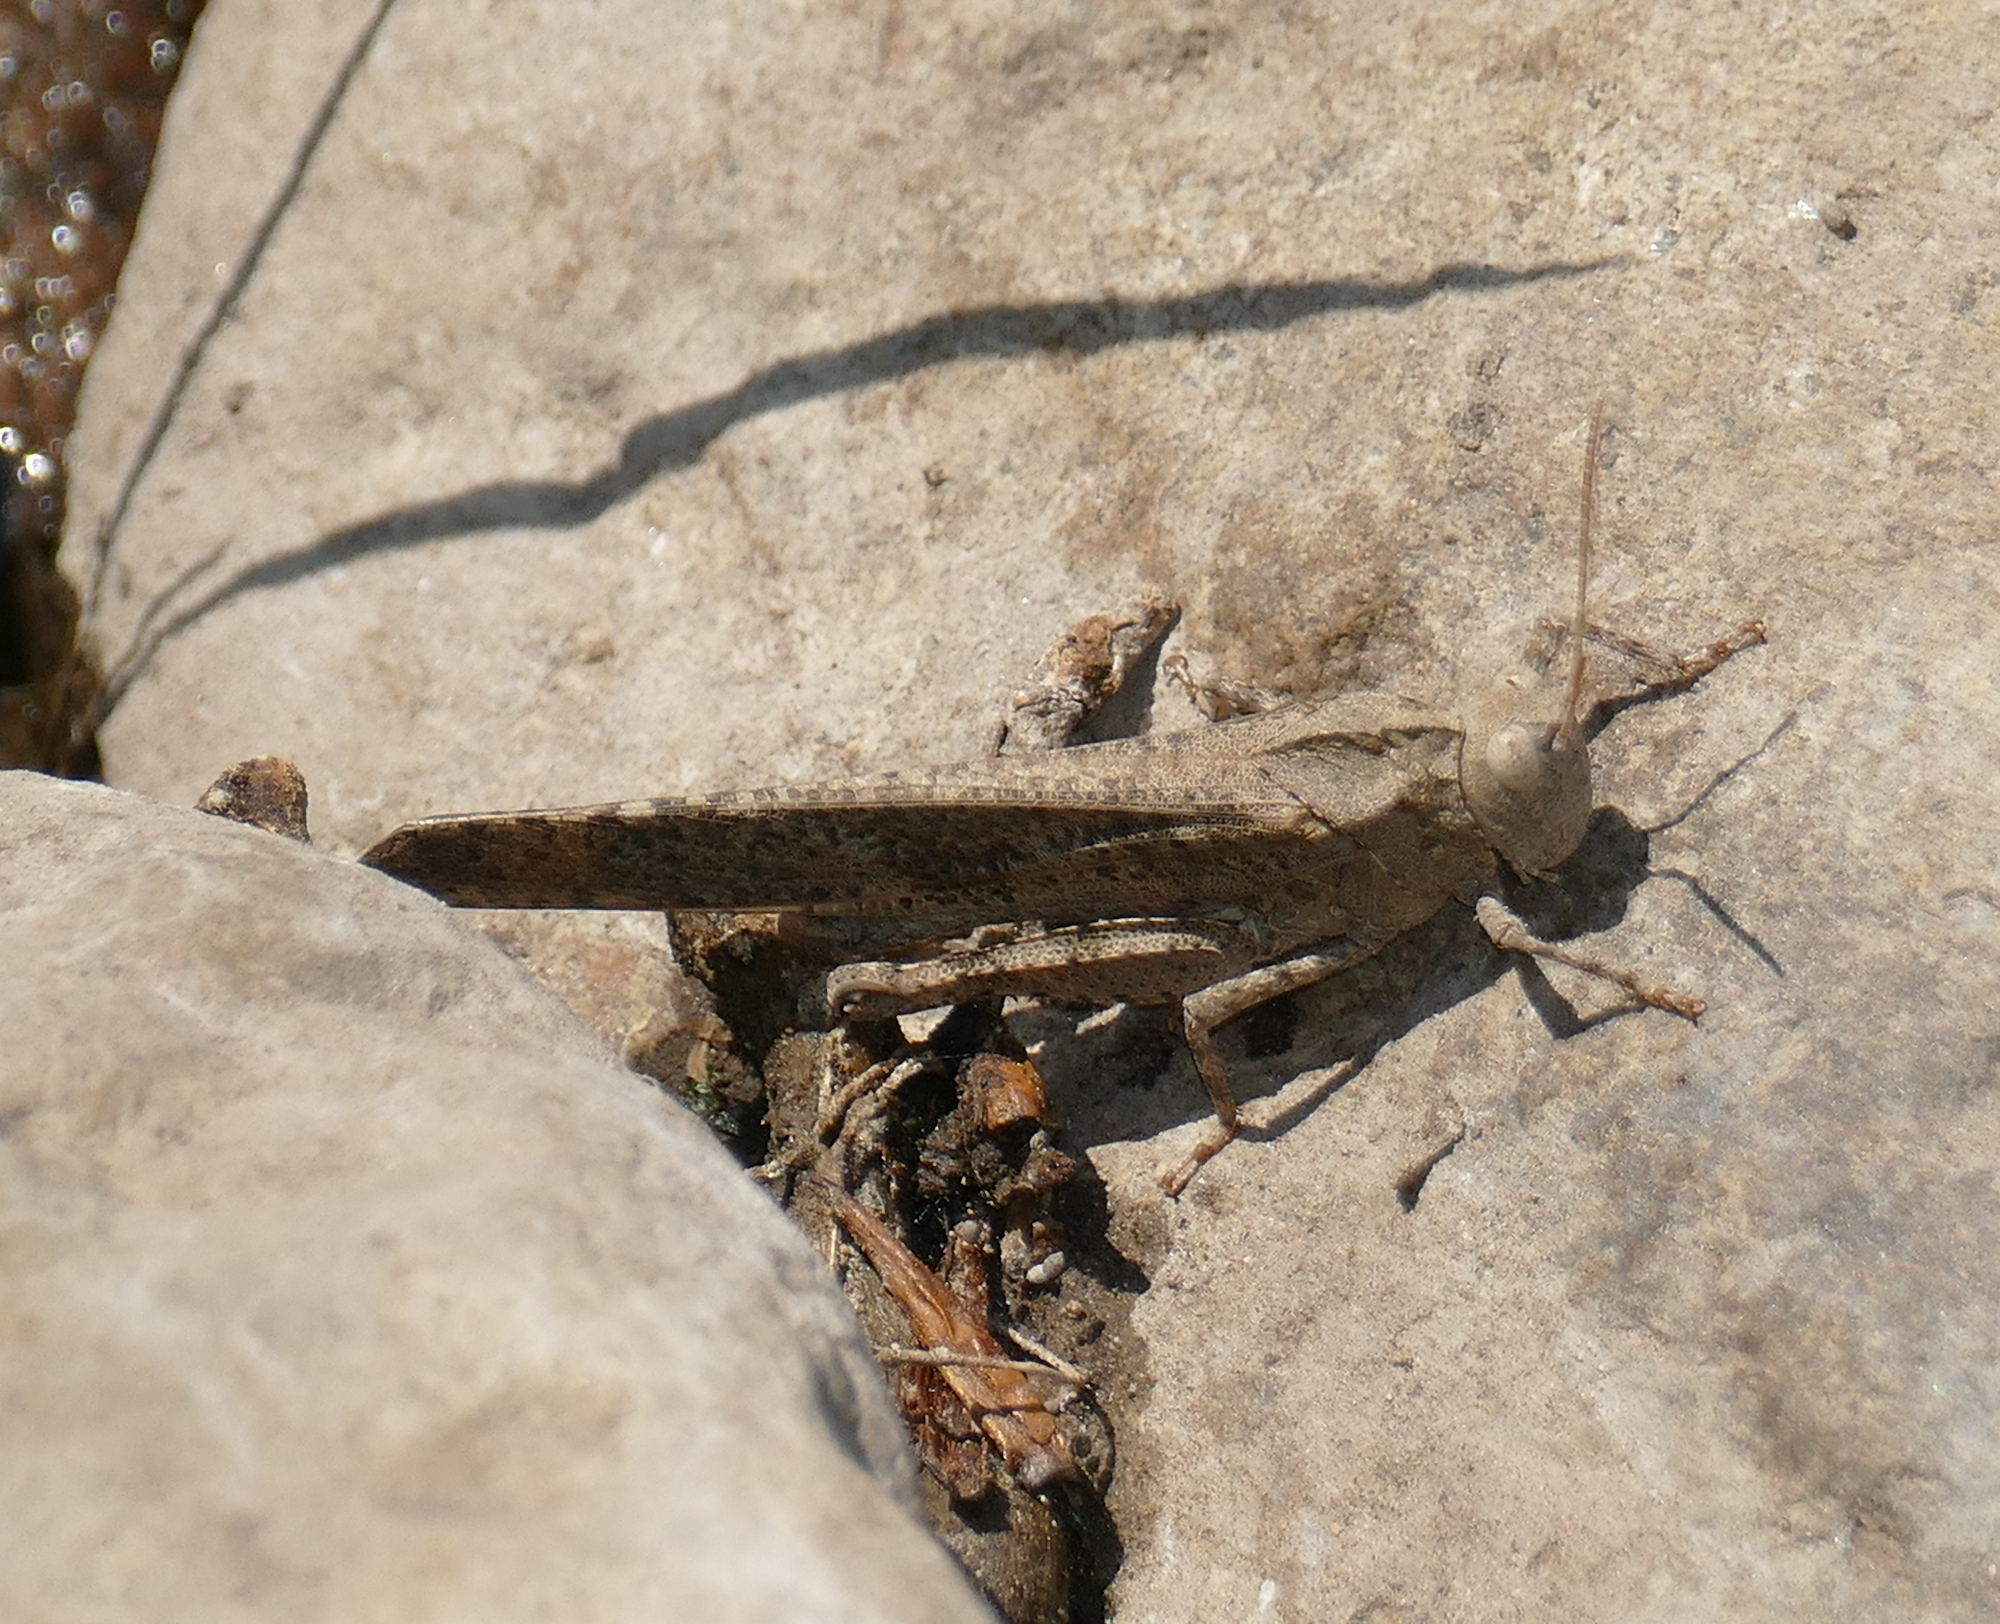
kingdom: Animalia
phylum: Arthropoda
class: Insecta
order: Orthoptera
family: Acrididae
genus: Dissosteira
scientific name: Dissosteira carolina
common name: Carolina grasshopper
